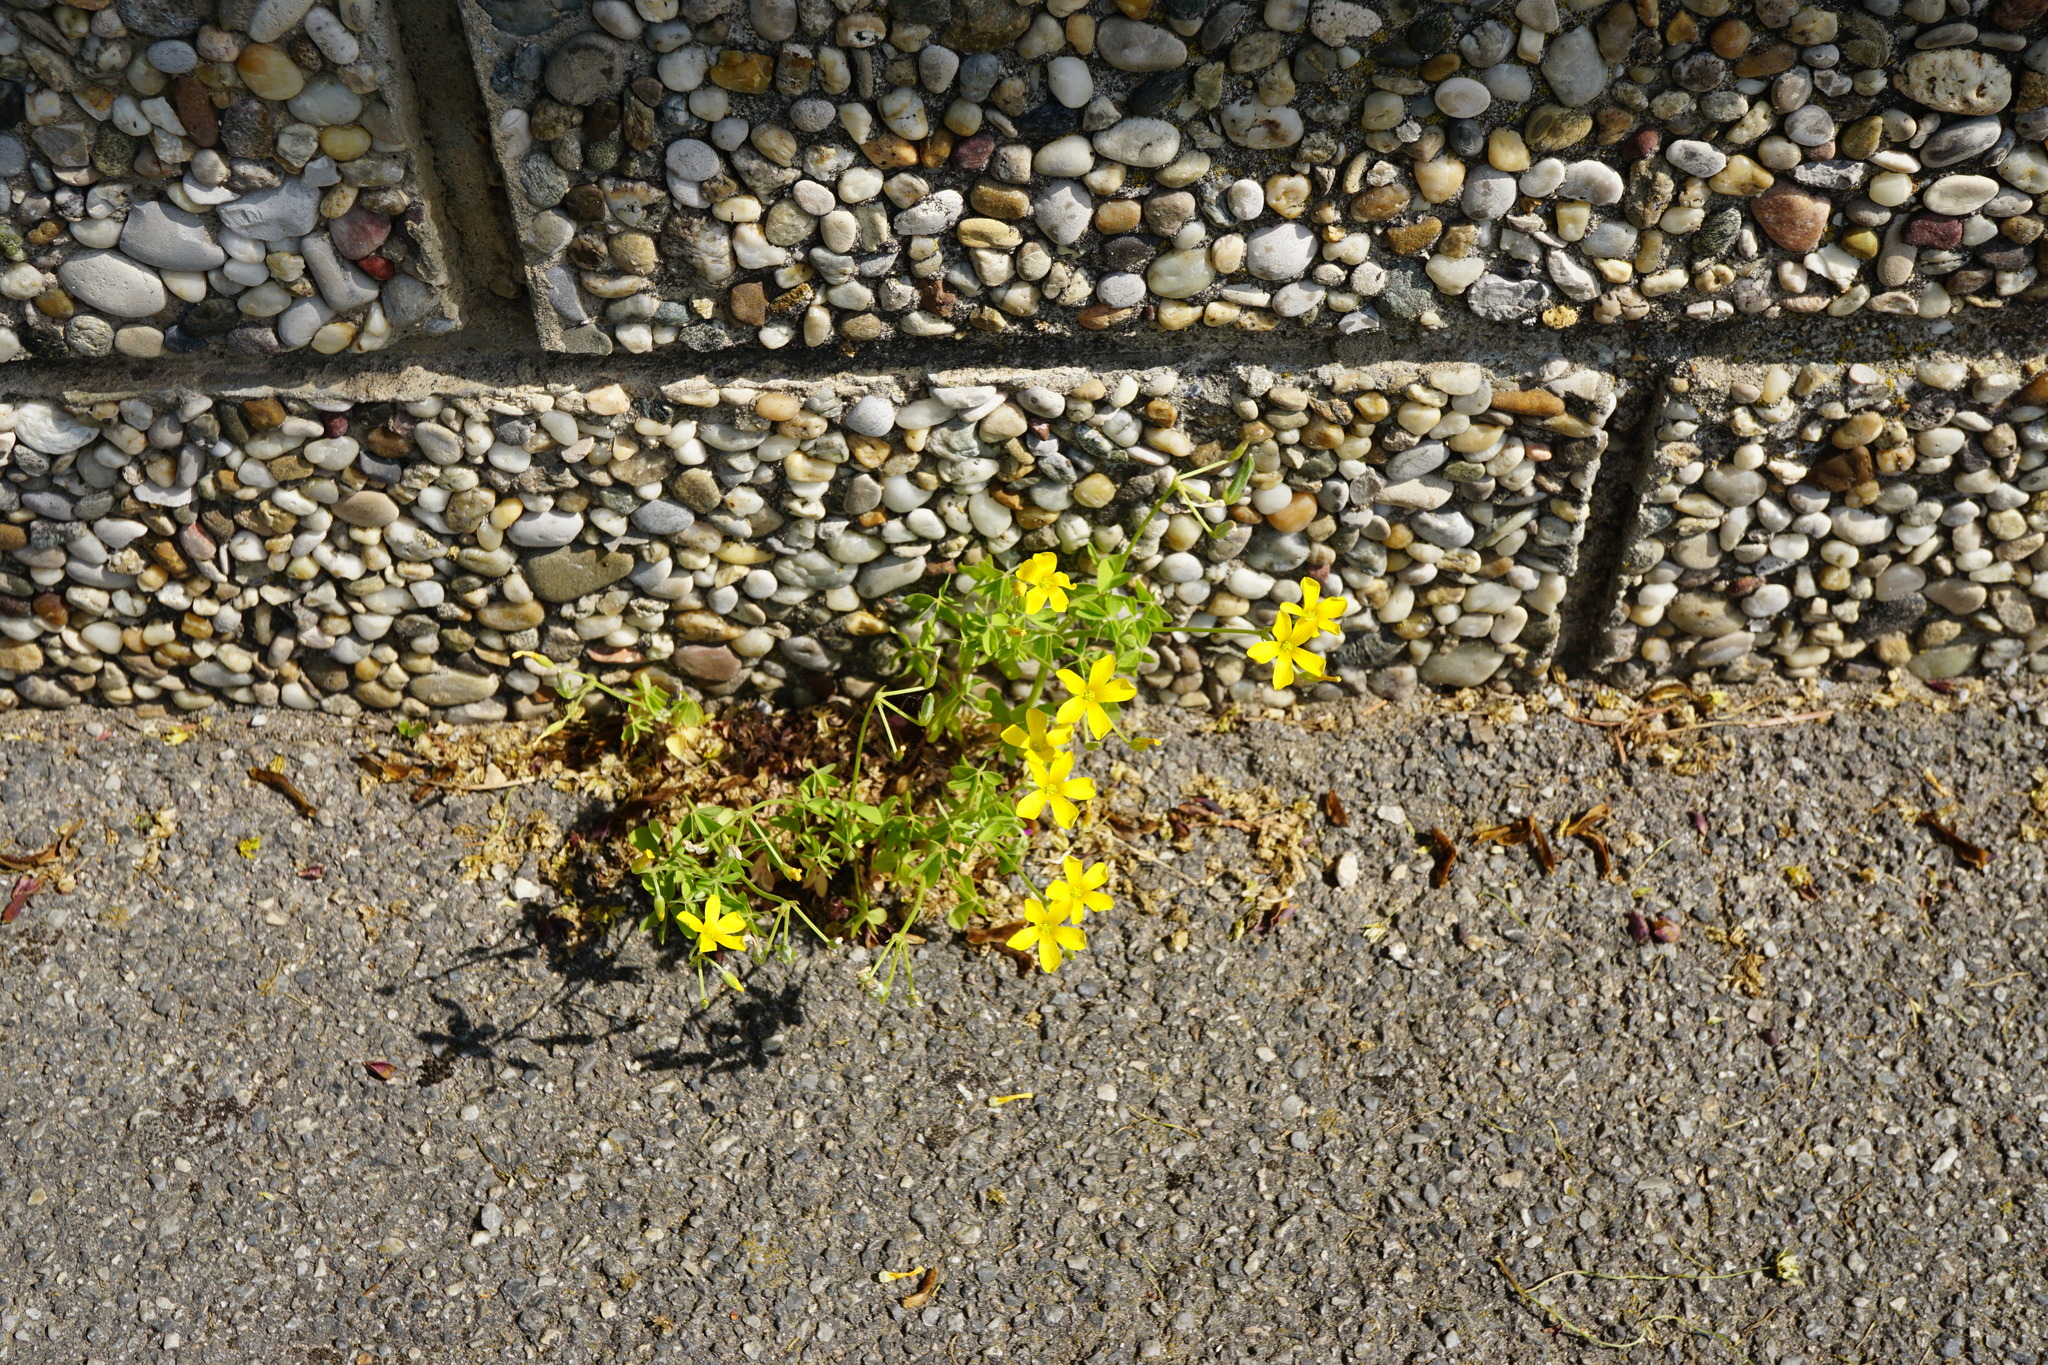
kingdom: Plantae
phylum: Tracheophyta
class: Magnoliopsida
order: Oxalidales
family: Oxalidaceae
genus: Oxalis
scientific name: Oxalis dillenii
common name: Sussex yellow-sorrel
